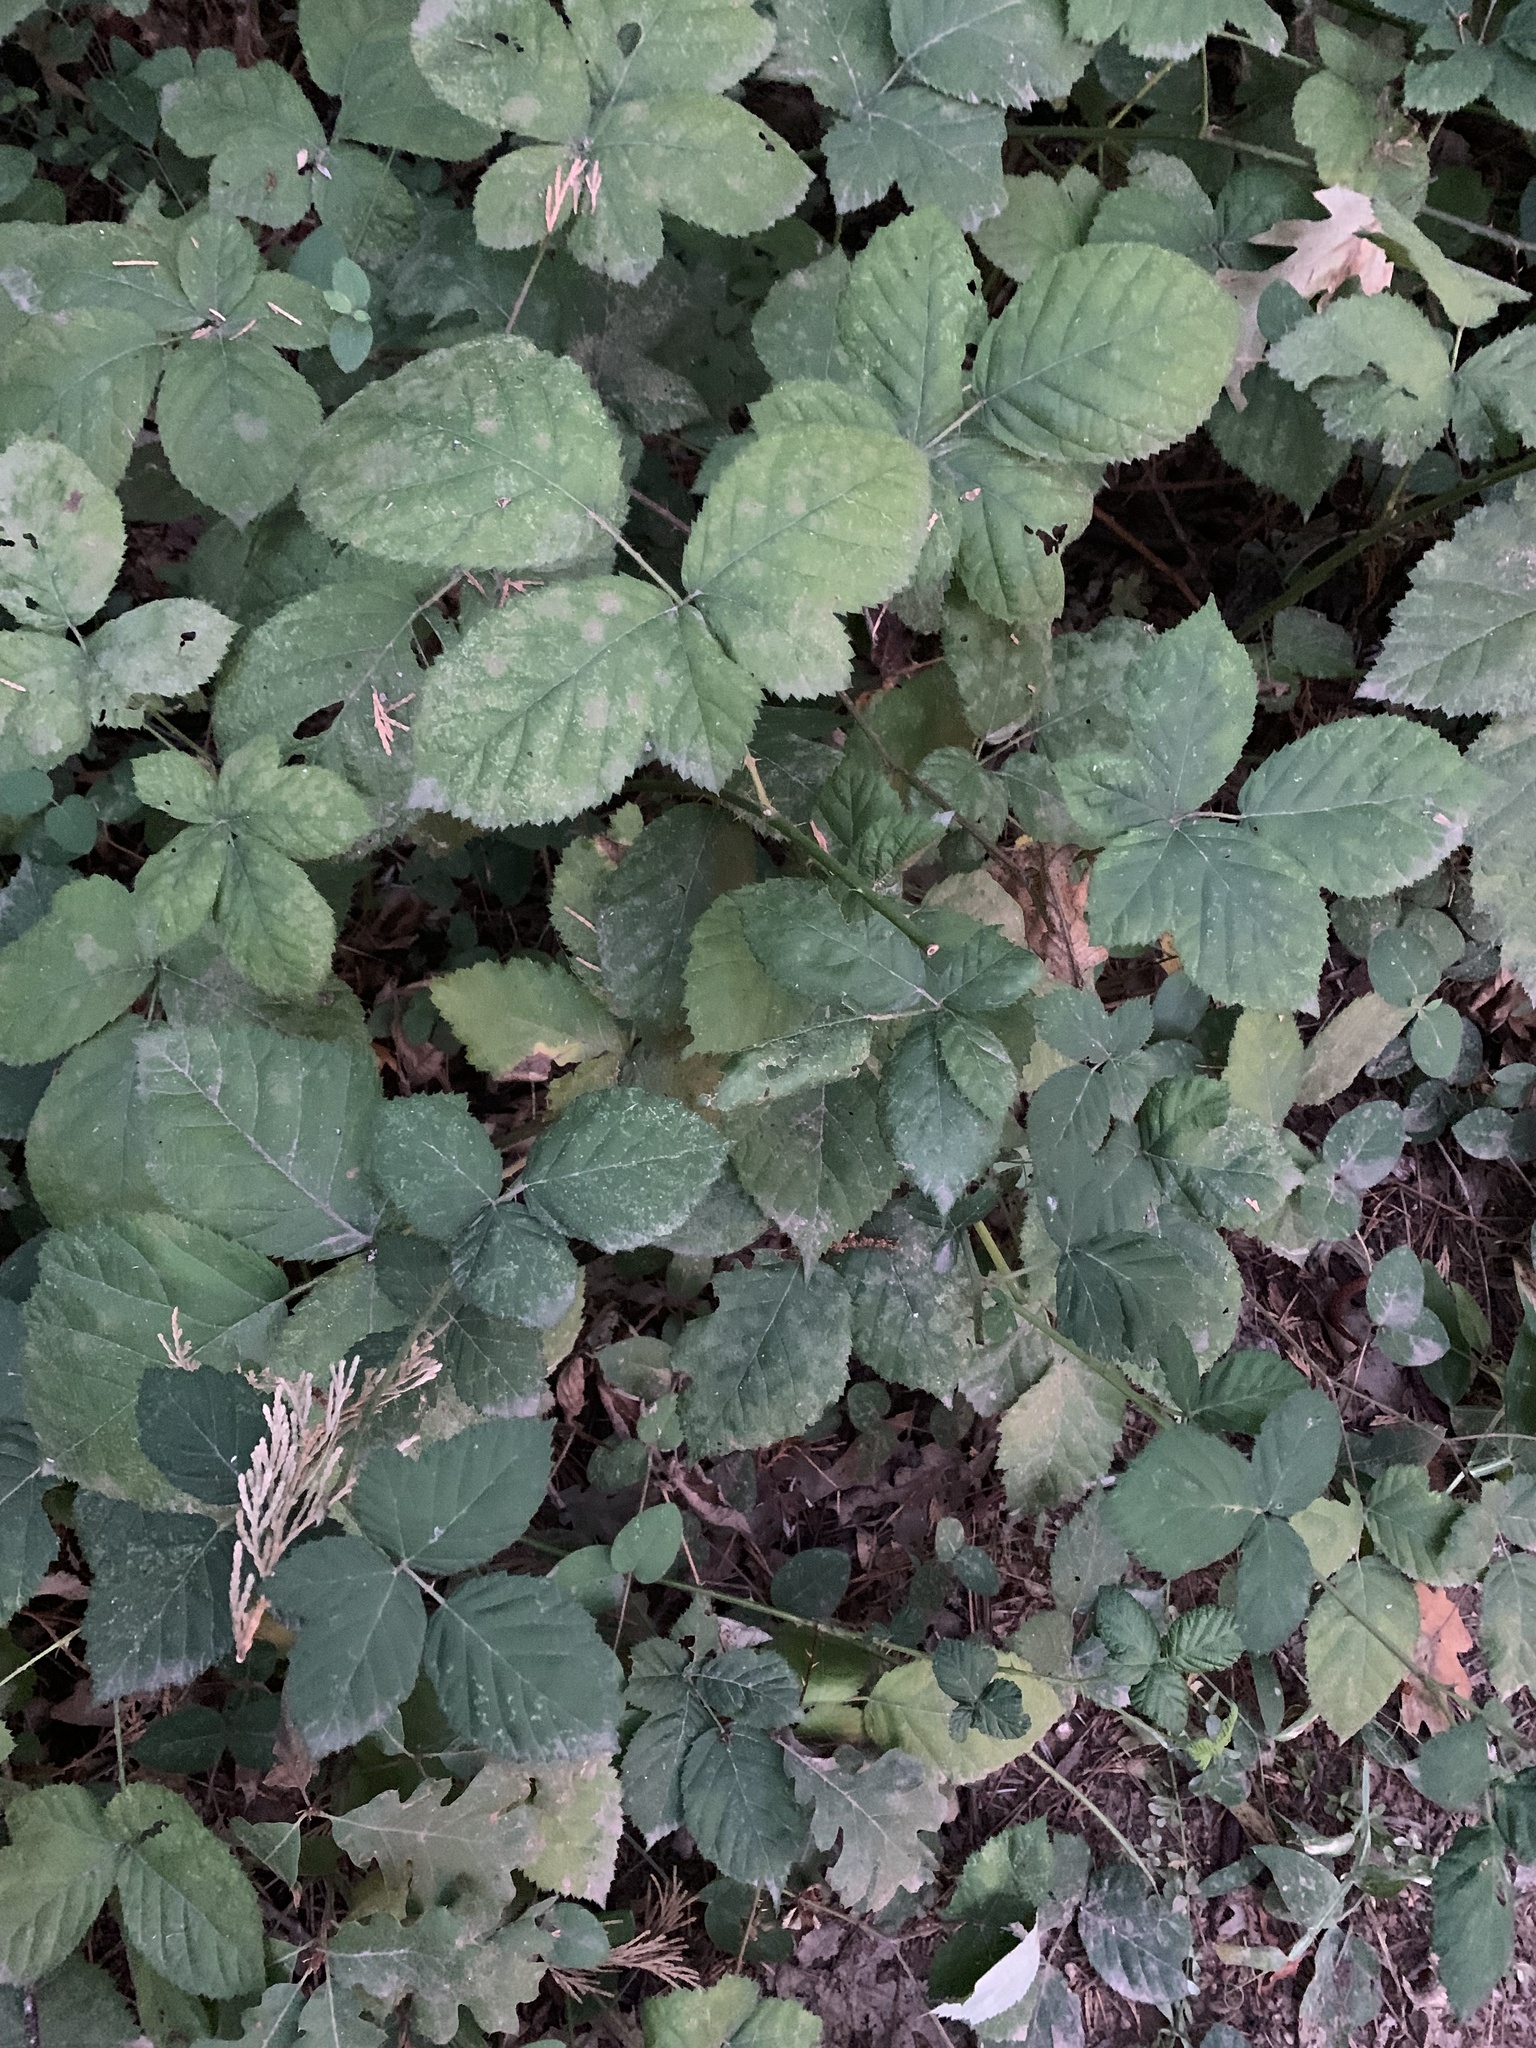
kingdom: Plantae
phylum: Tracheophyta
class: Magnoliopsida
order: Rosales
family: Rosaceae
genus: Rubus
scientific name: Rubus armeniacus
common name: Himalayan blackberry
